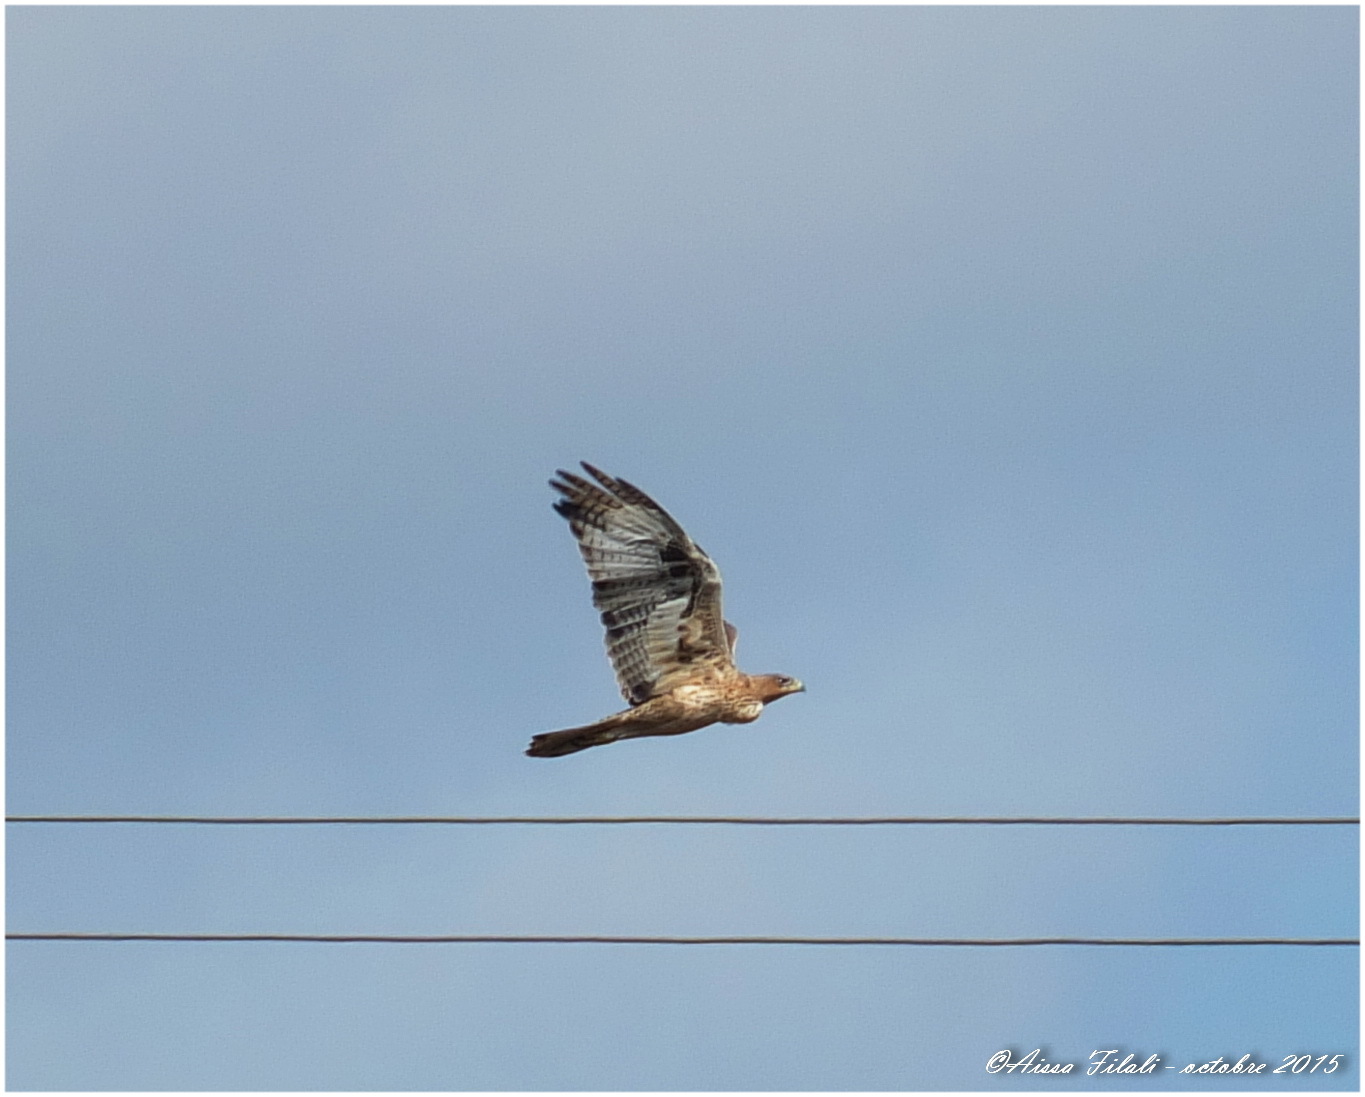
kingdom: Animalia
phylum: Chordata
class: Aves
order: Accipitriformes
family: Accipitridae
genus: Aquila
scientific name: Aquila fasciata
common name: Bonelli's eagle
